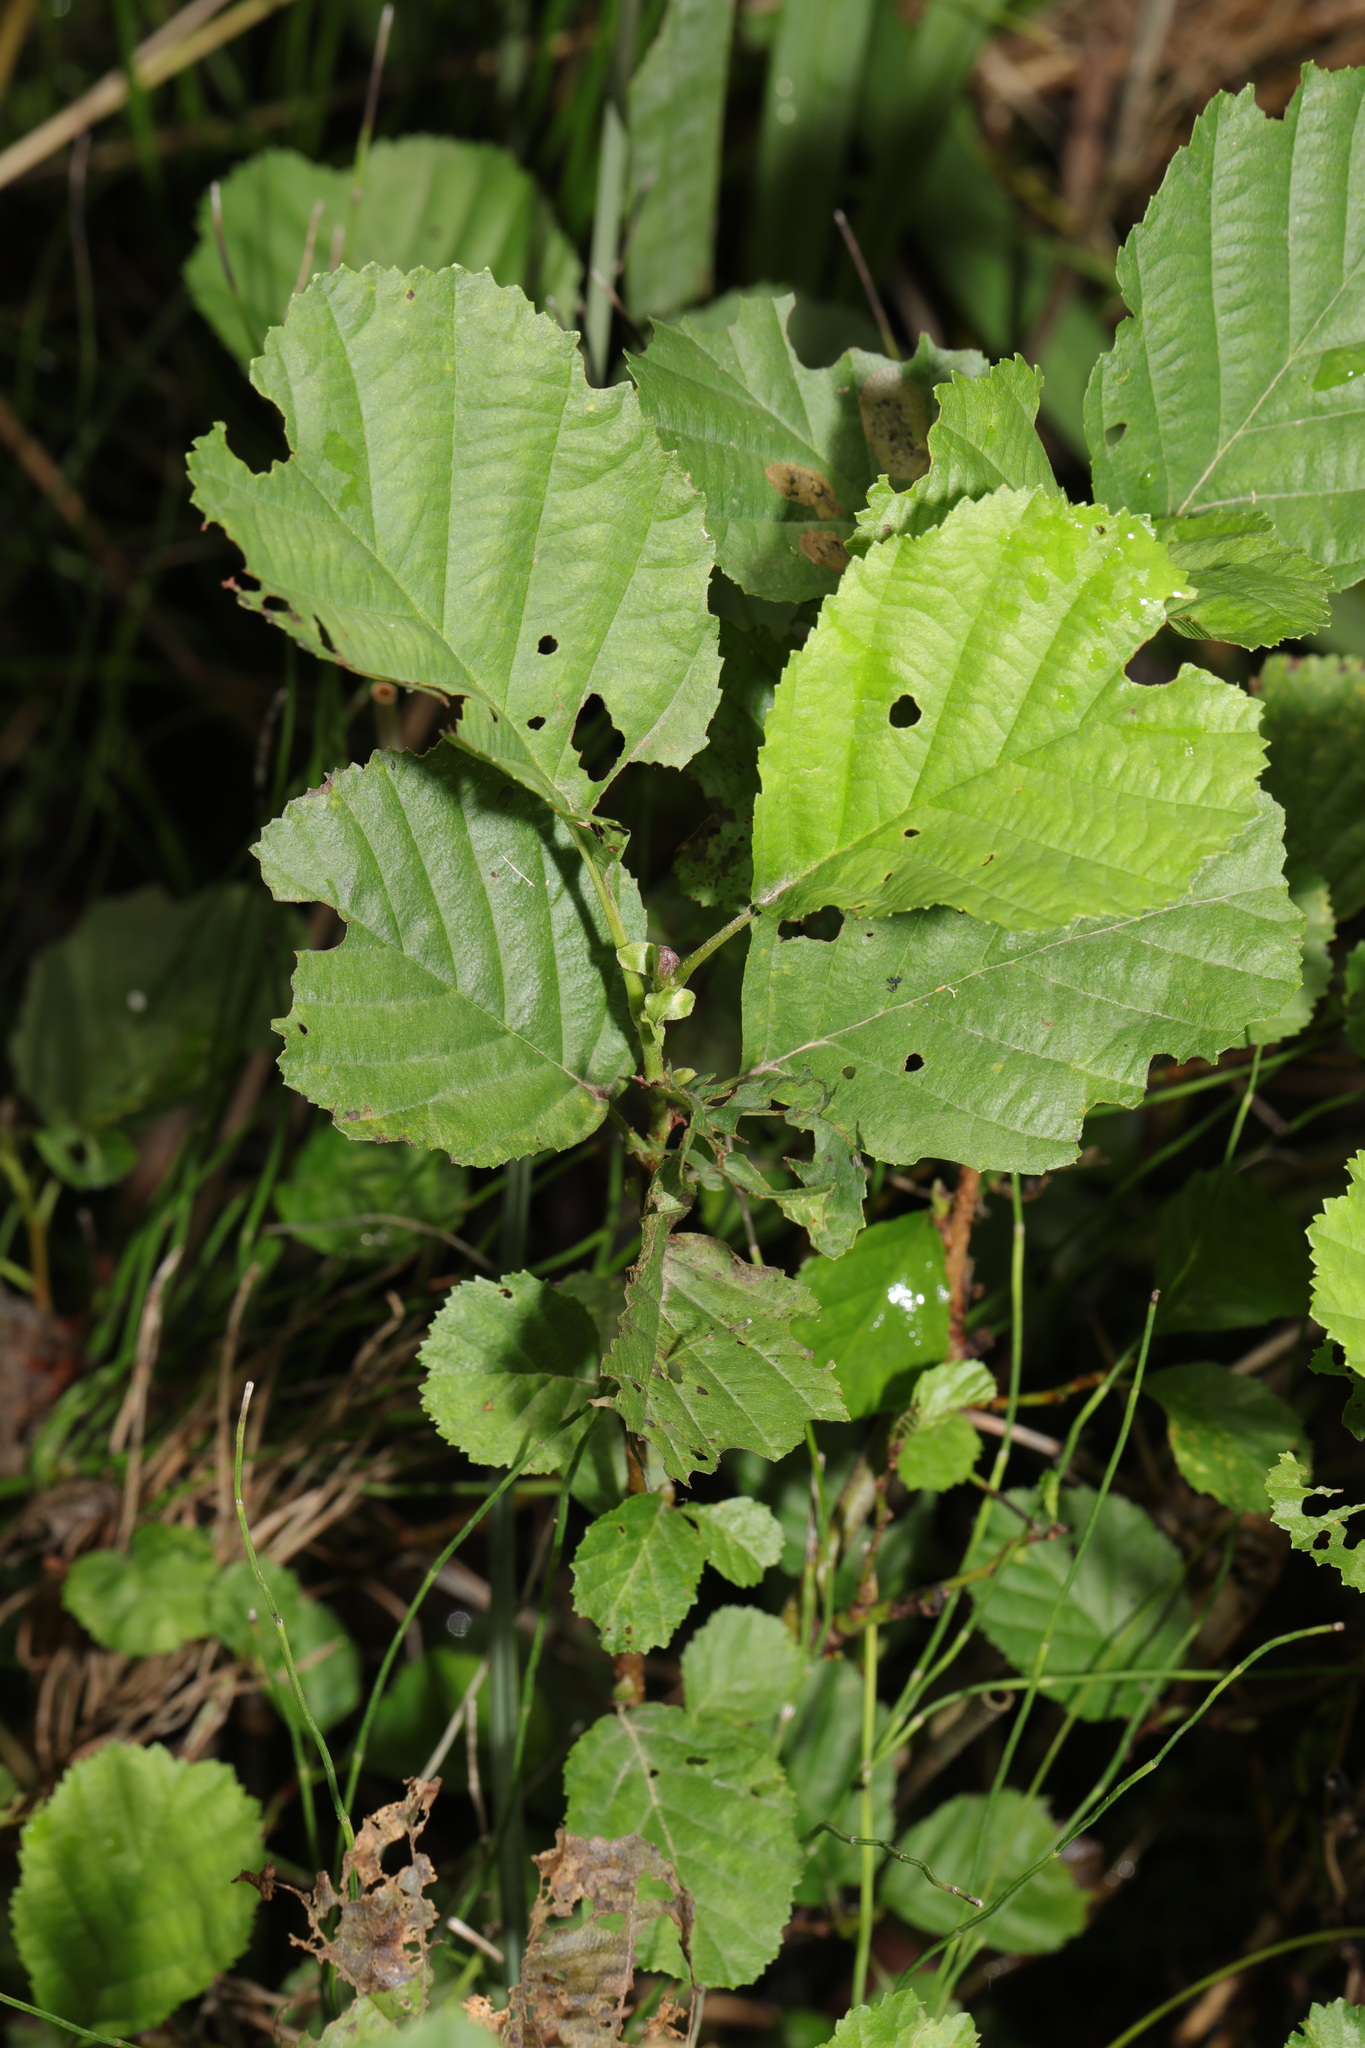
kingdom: Plantae
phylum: Tracheophyta
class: Magnoliopsida
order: Fagales
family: Betulaceae
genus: Alnus
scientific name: Alnus glutinosa
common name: Black alder
